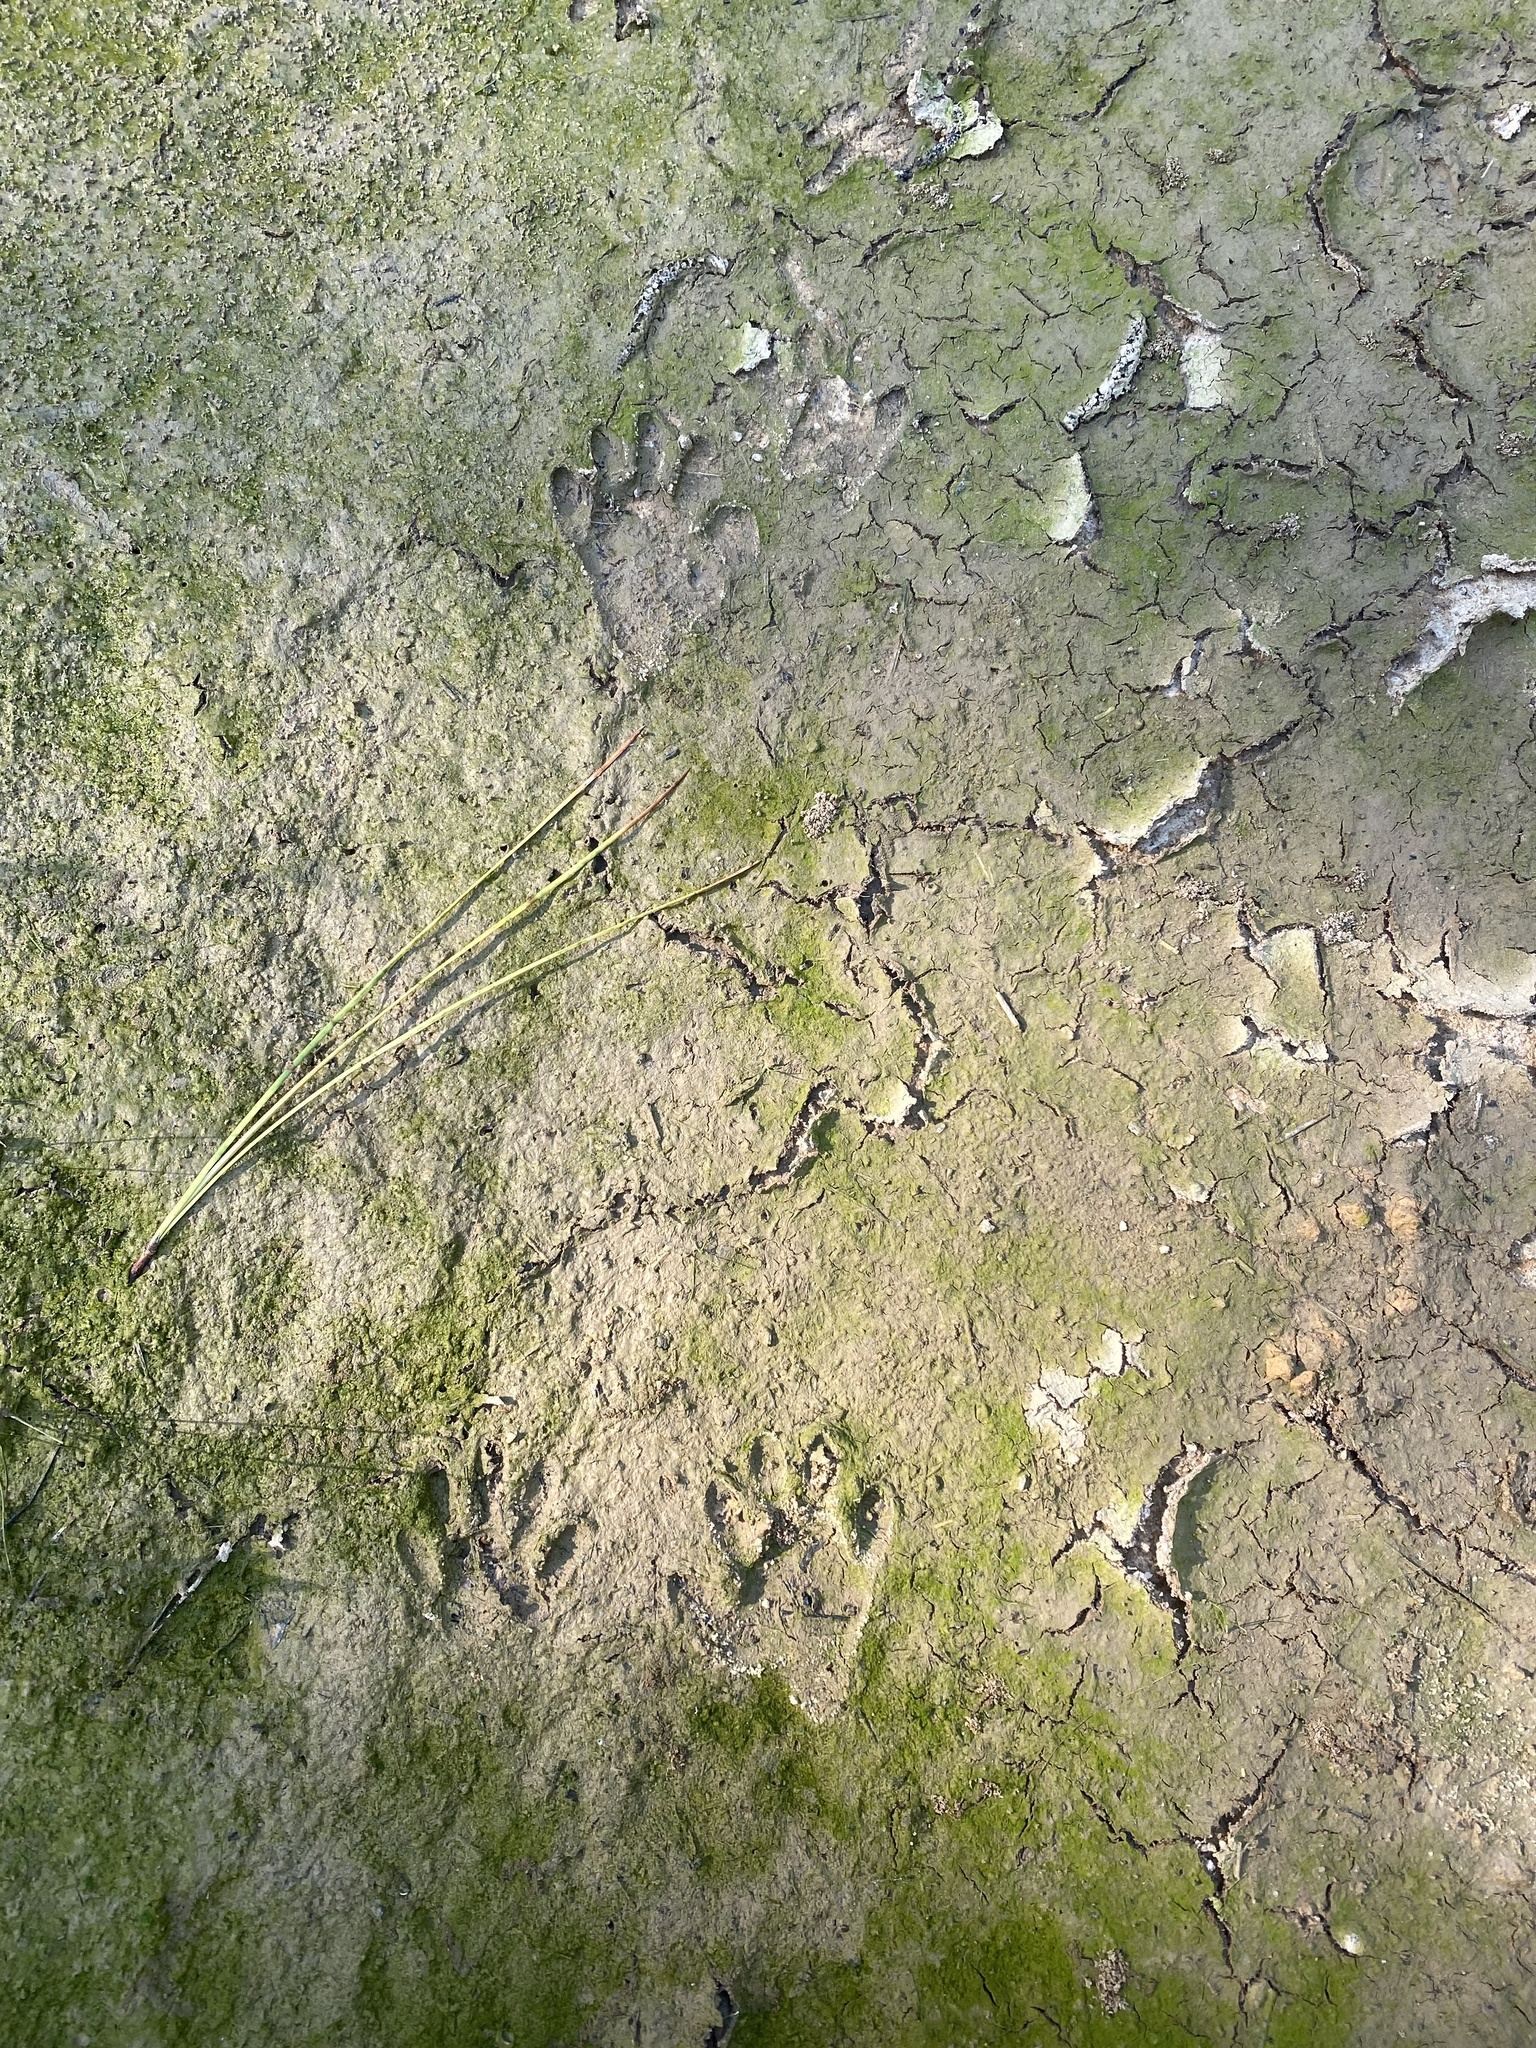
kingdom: Animalia
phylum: Chordata
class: Mammalia
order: Carnivora
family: Procyonidae
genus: Procyon
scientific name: Procyon lotor
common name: Raccoon
